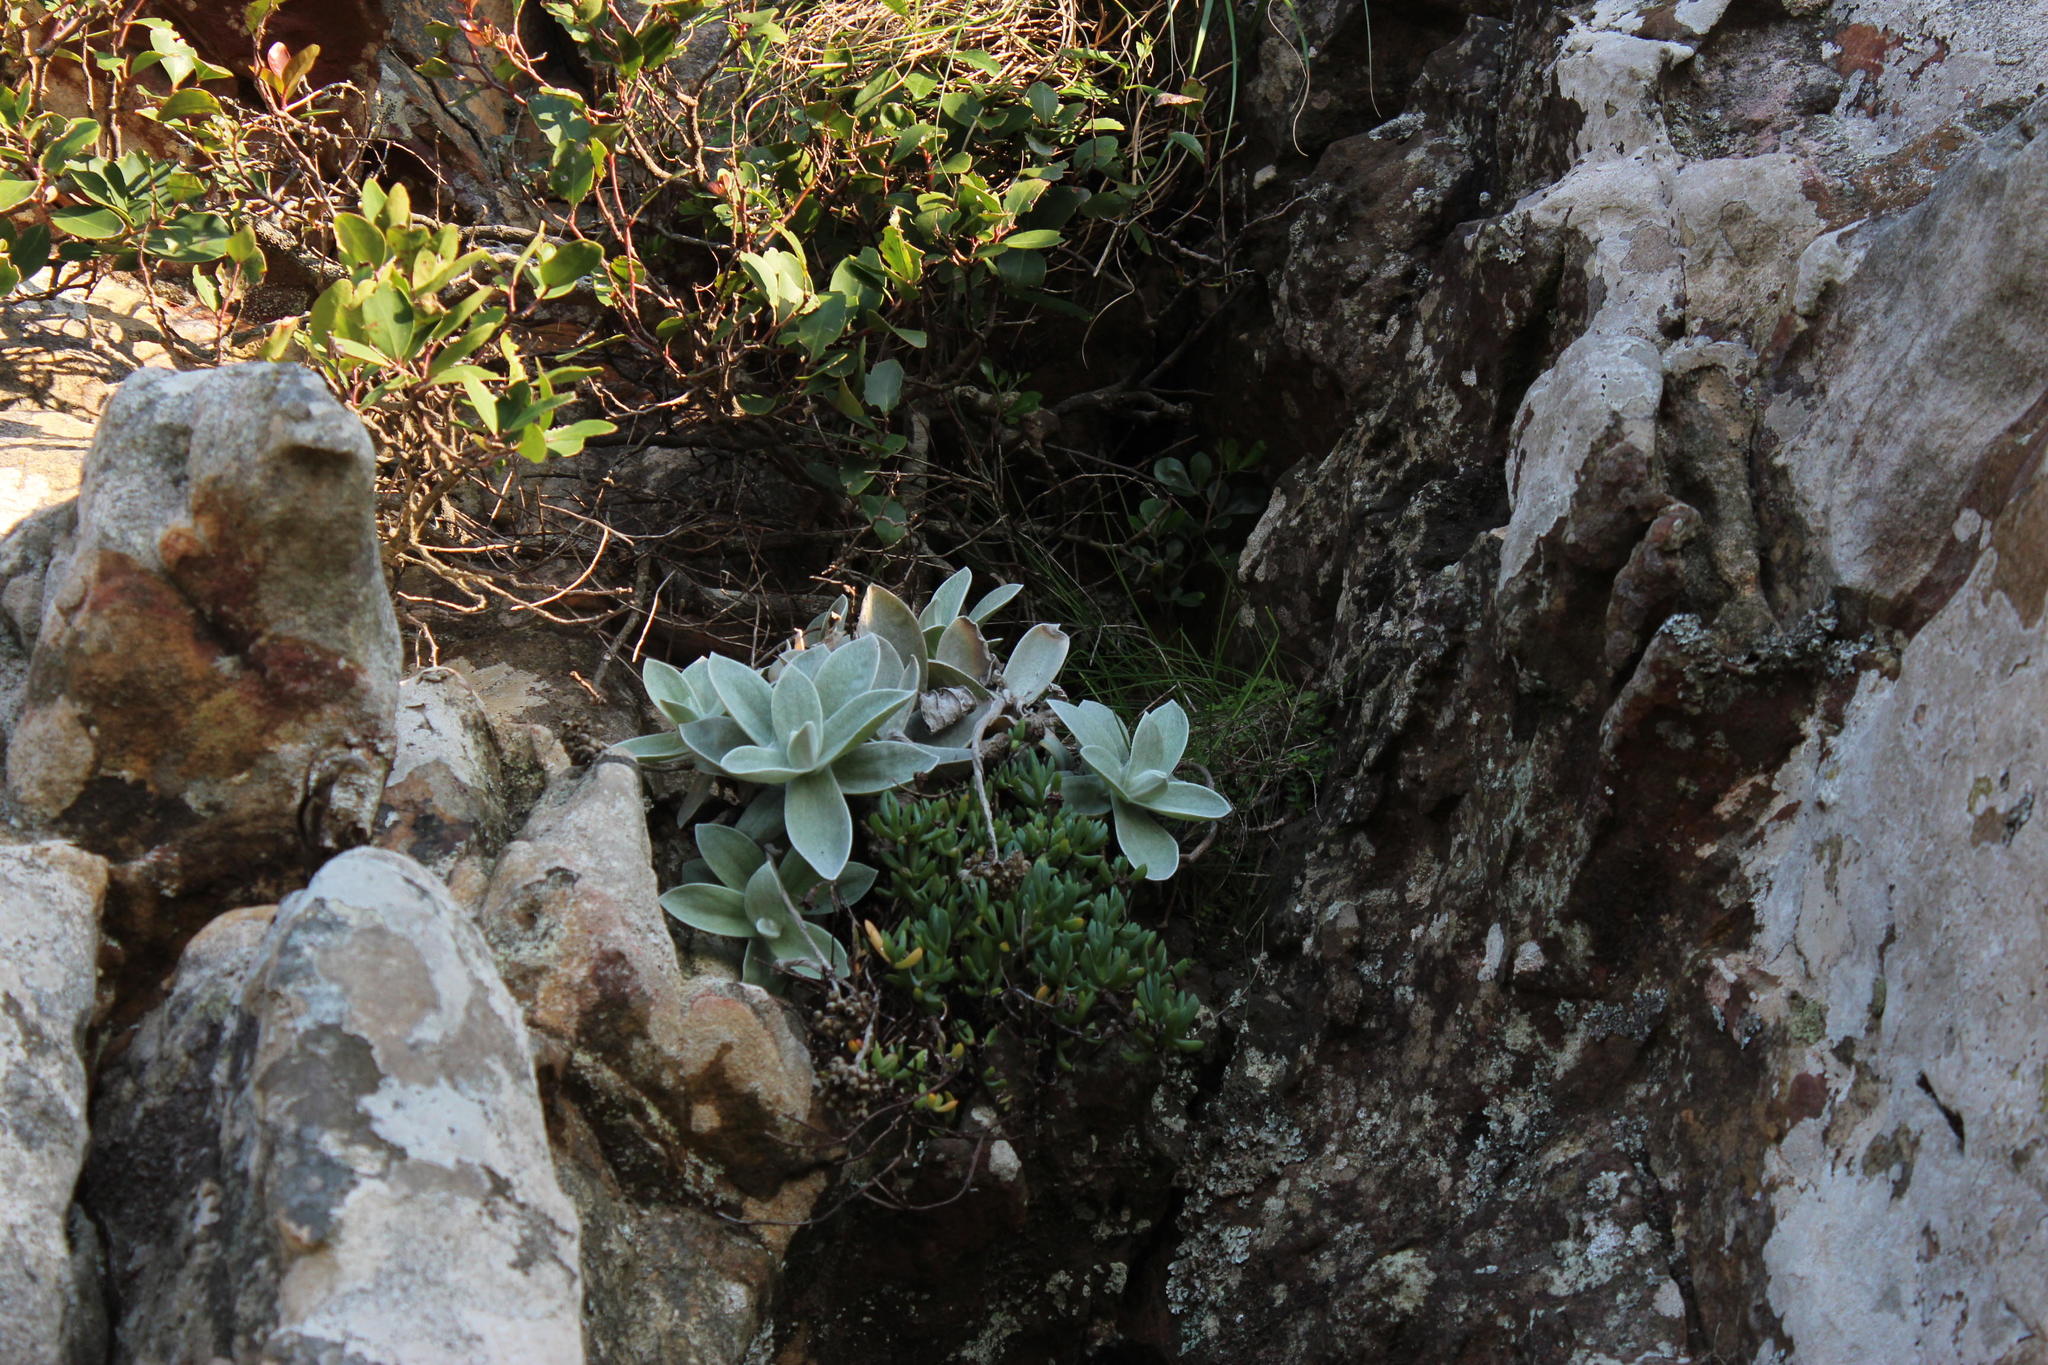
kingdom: Plantae
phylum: Tracheophyta
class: Magnoliopsida
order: Asterales
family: Asteraceae
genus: Helichrysum
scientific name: Helichrysum grandiflorum
